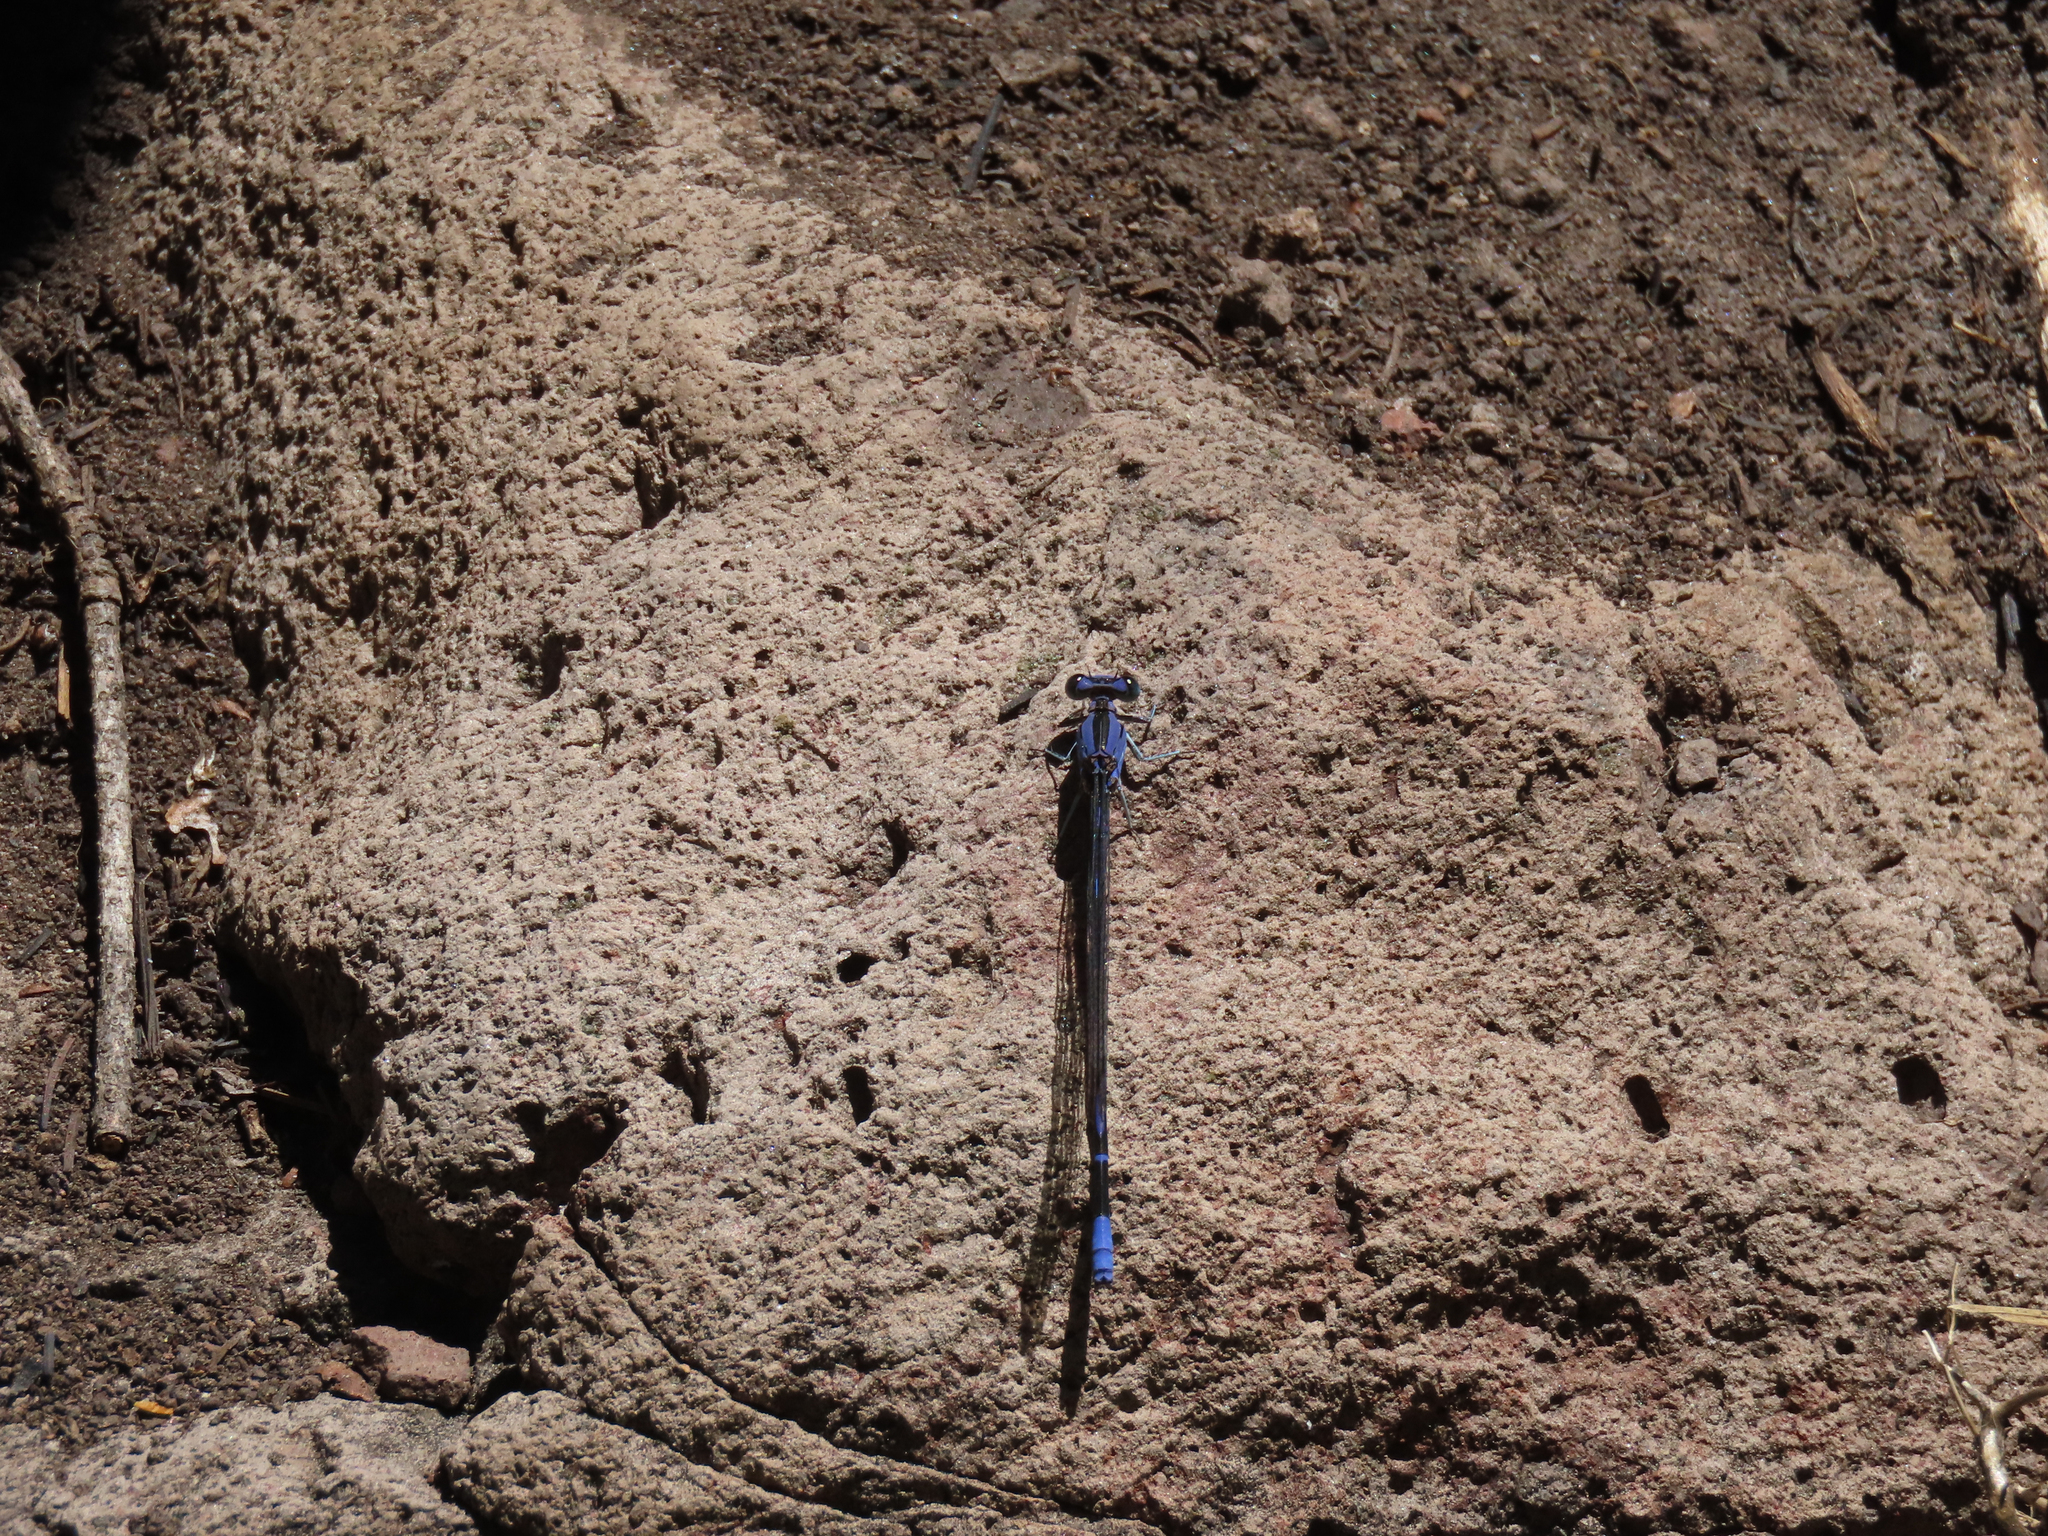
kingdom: Animalia
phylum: Arthropoda
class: Insecta
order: Odonata
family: Coenagrionidae
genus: Argia
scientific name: Argia funebris
